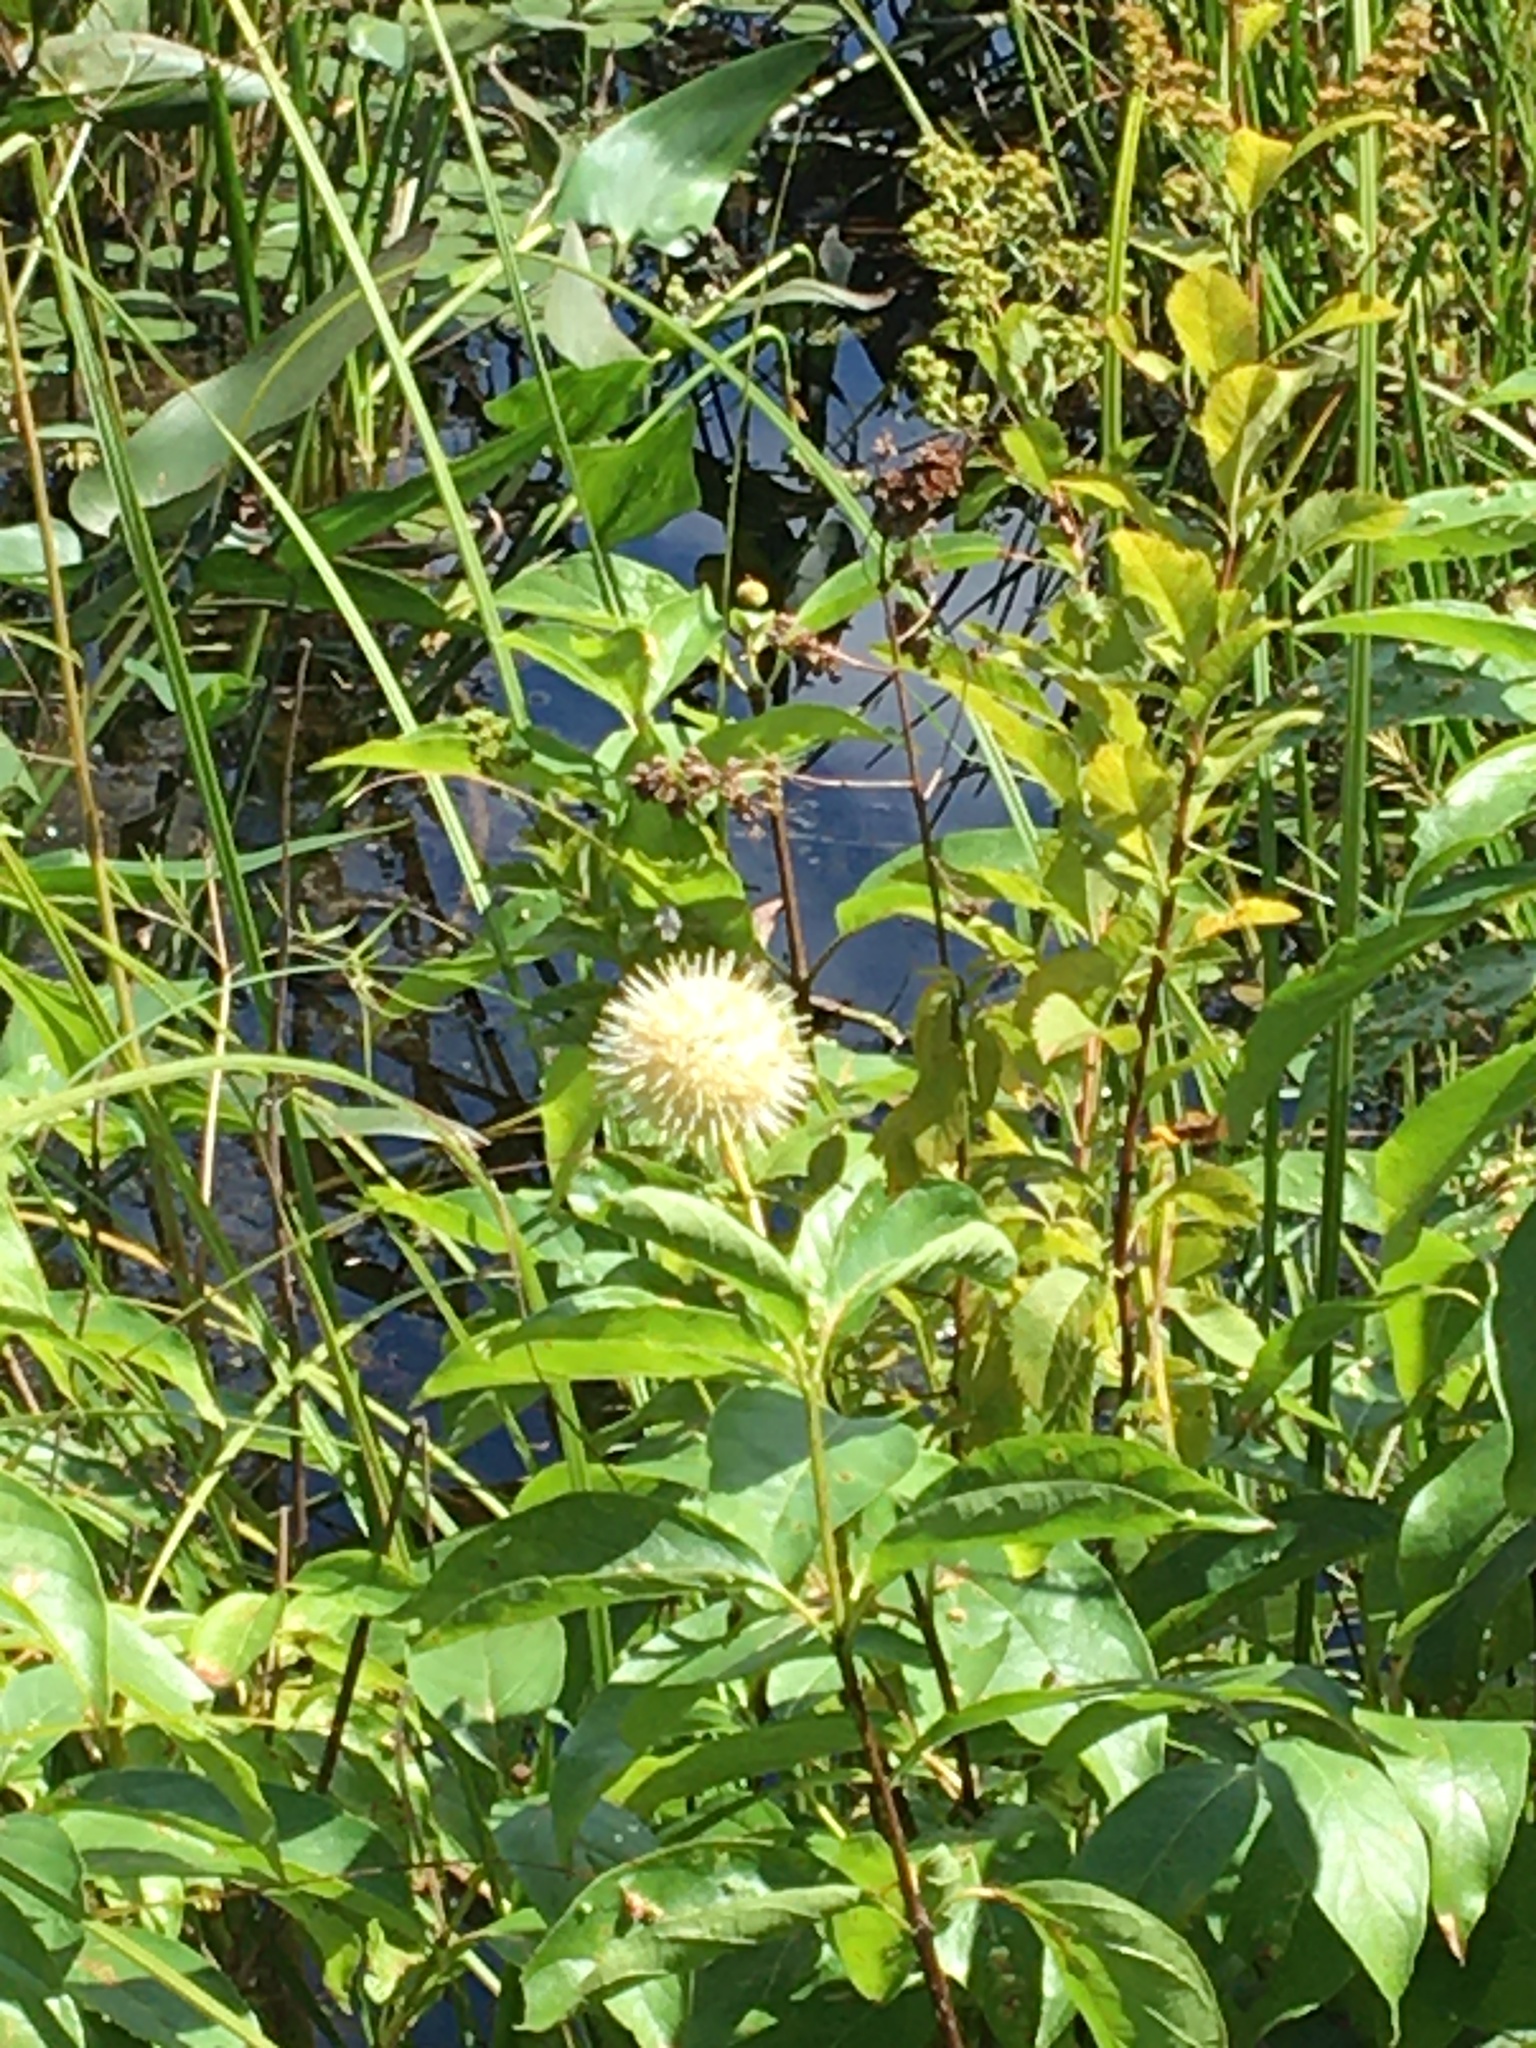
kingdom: Plantae
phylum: Tracheophyta
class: Magnoliopsida
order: Gentianales
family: Rubiaceae
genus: Cephalanthus
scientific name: Cephalanthus occidentalis
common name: Button-willow
